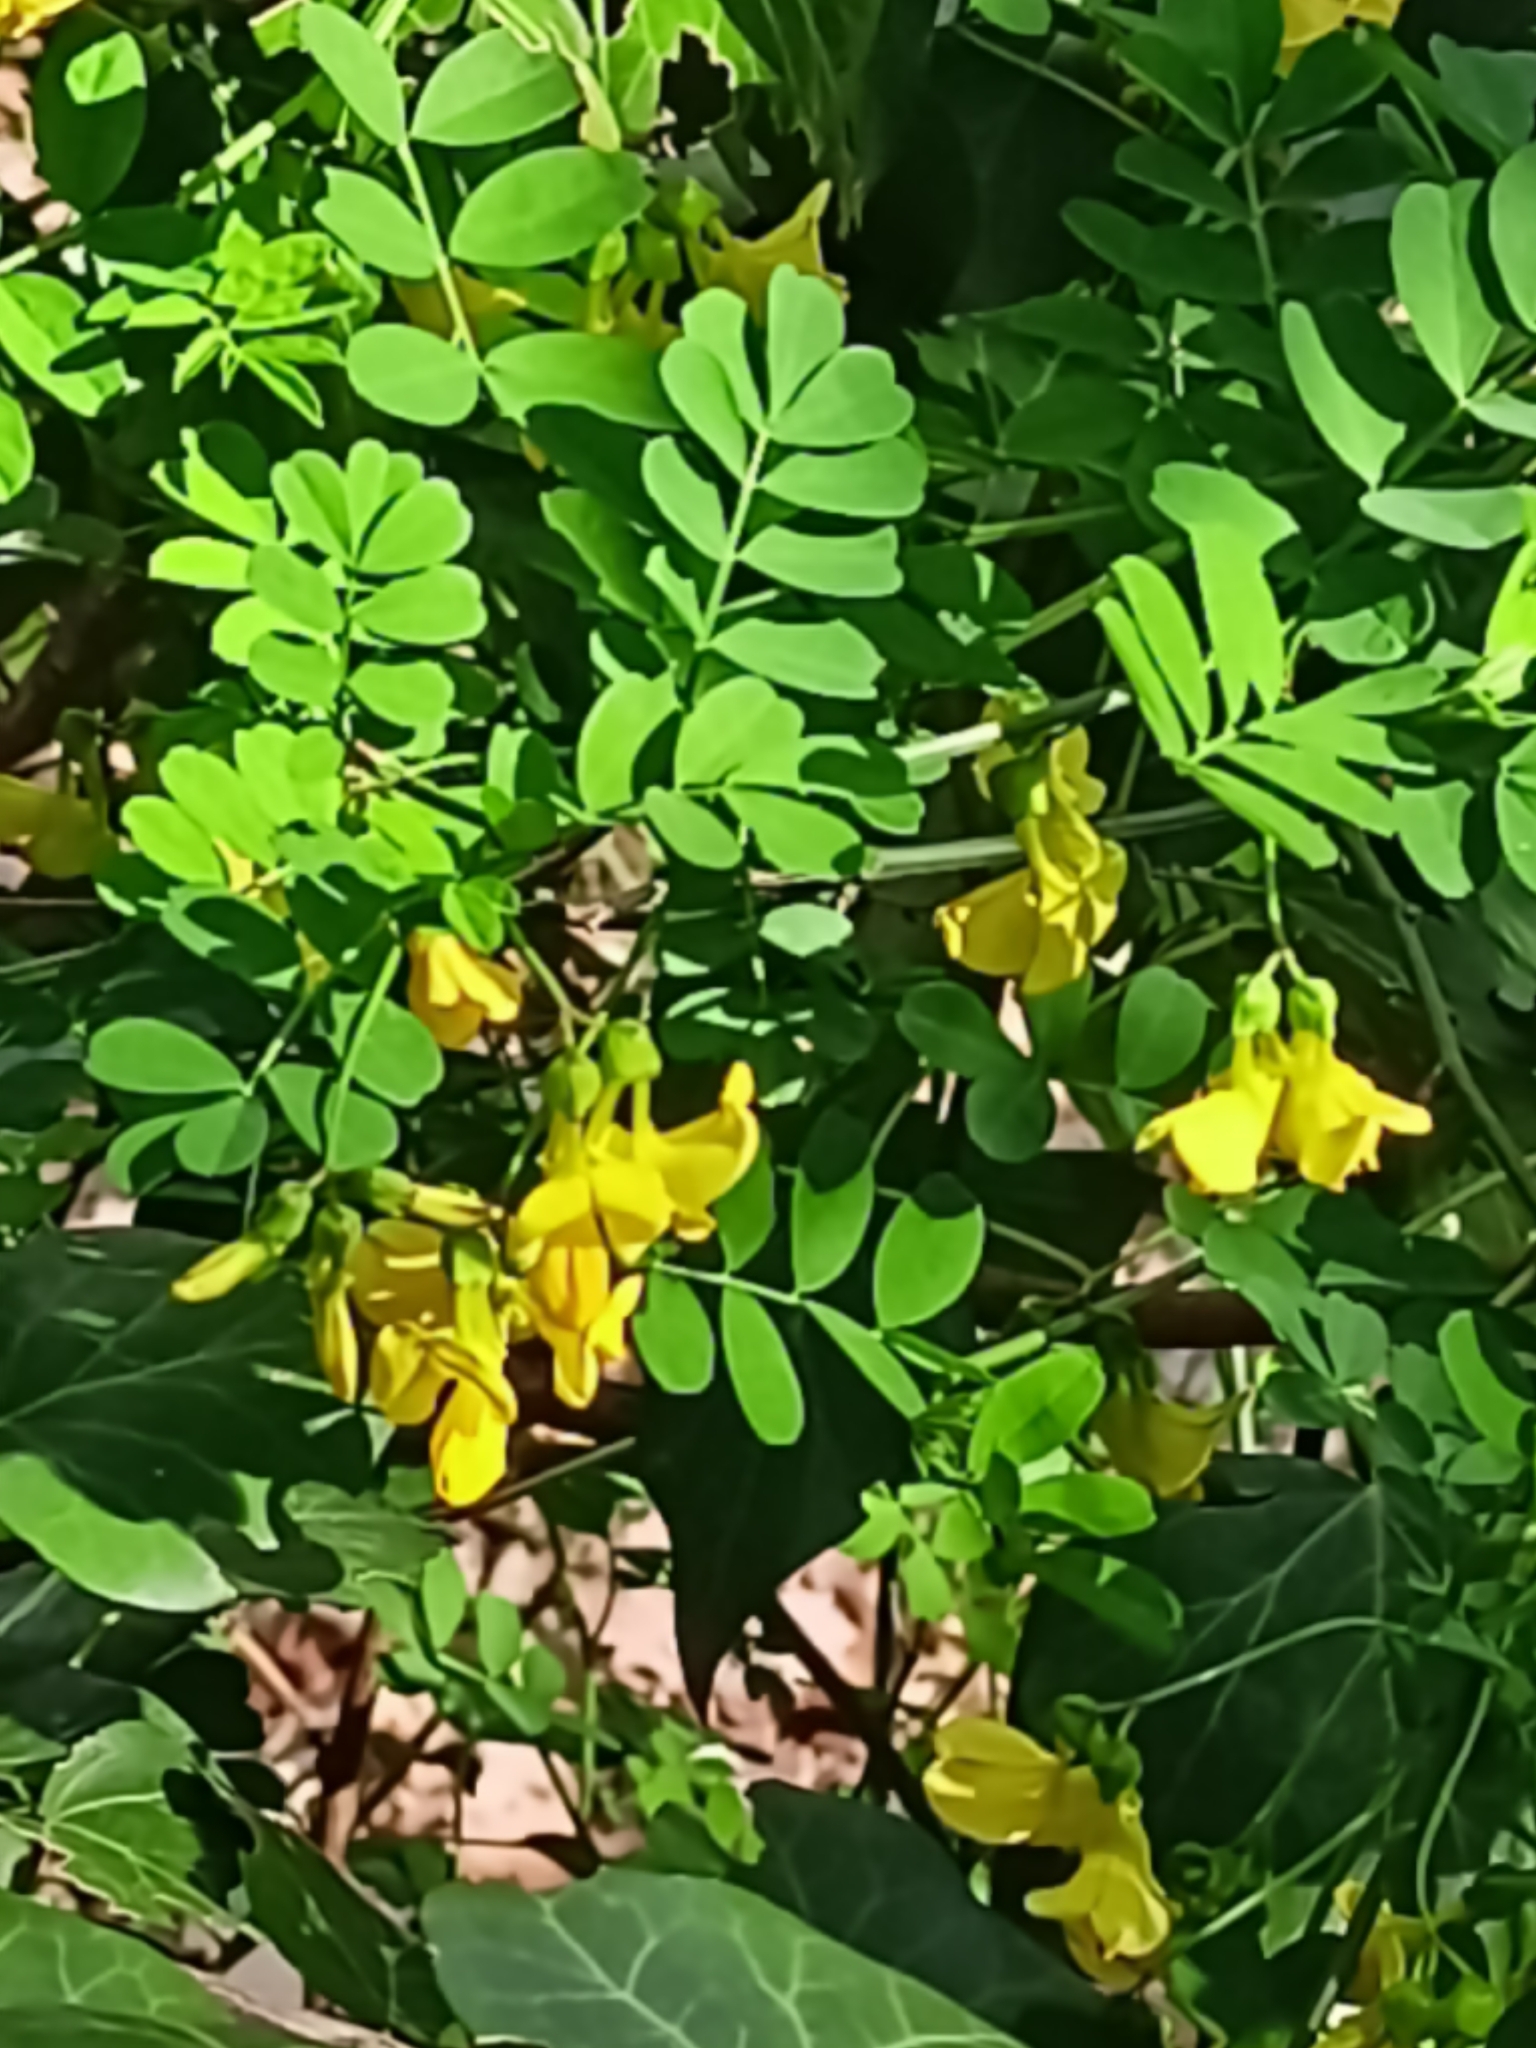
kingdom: Plantae
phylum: Tracheophyta
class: Magnoliopsida
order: Fabales
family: Fabaceae
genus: Hippocrepis
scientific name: Hippocrepis emerus
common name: Scorpion senna
